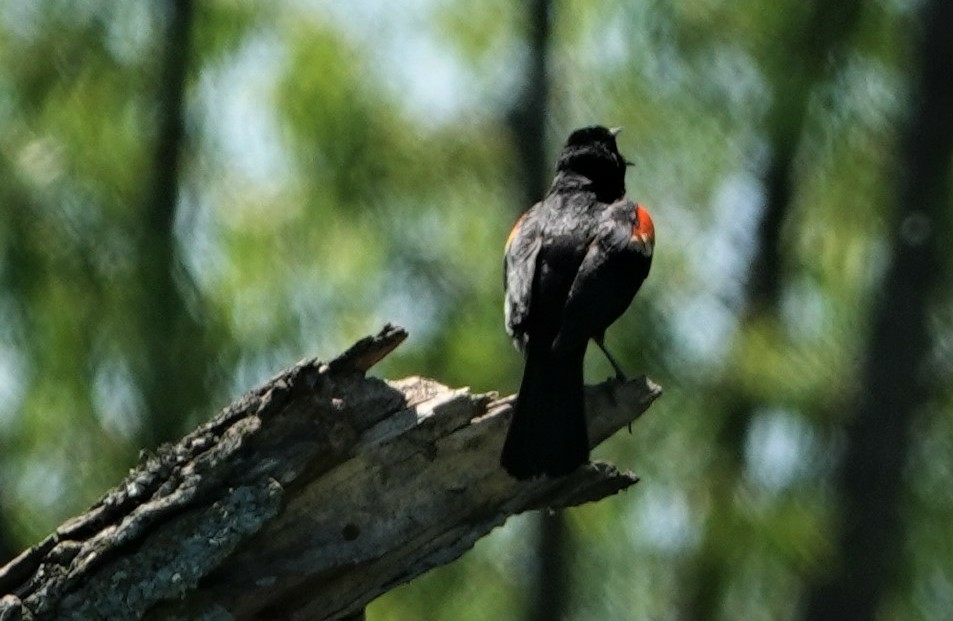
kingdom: Animalia
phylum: Chordata
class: Aves
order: Passeriformes
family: Icteridae
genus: Agelaius
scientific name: Agelaius phoeniceus
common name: Red-winged blackbird
